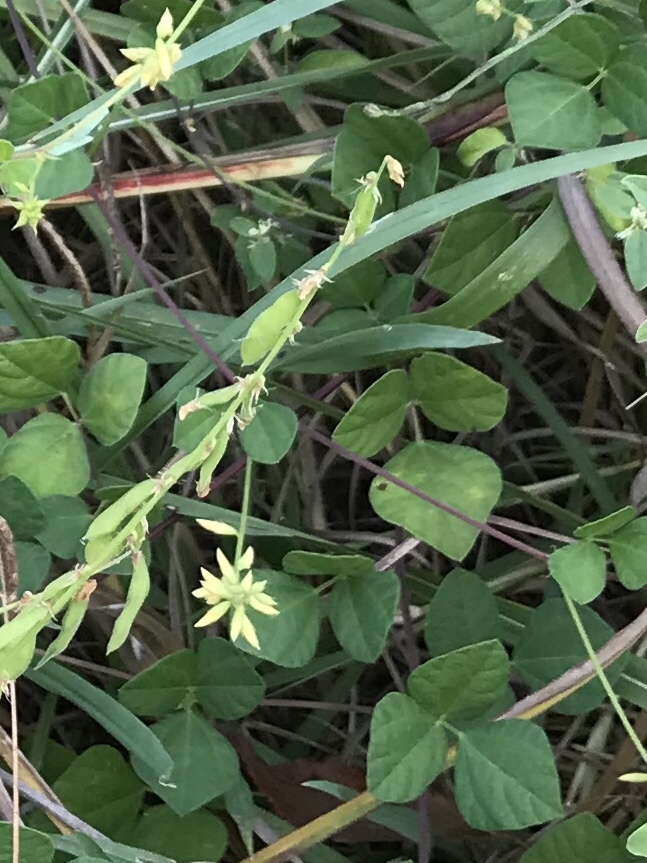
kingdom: Plantae
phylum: Tracheophyta
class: Magnoliopsida
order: Fabales
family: Fabaceae
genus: Rhynchosia
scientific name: Rhynchosia minima
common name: Least snoutbean
